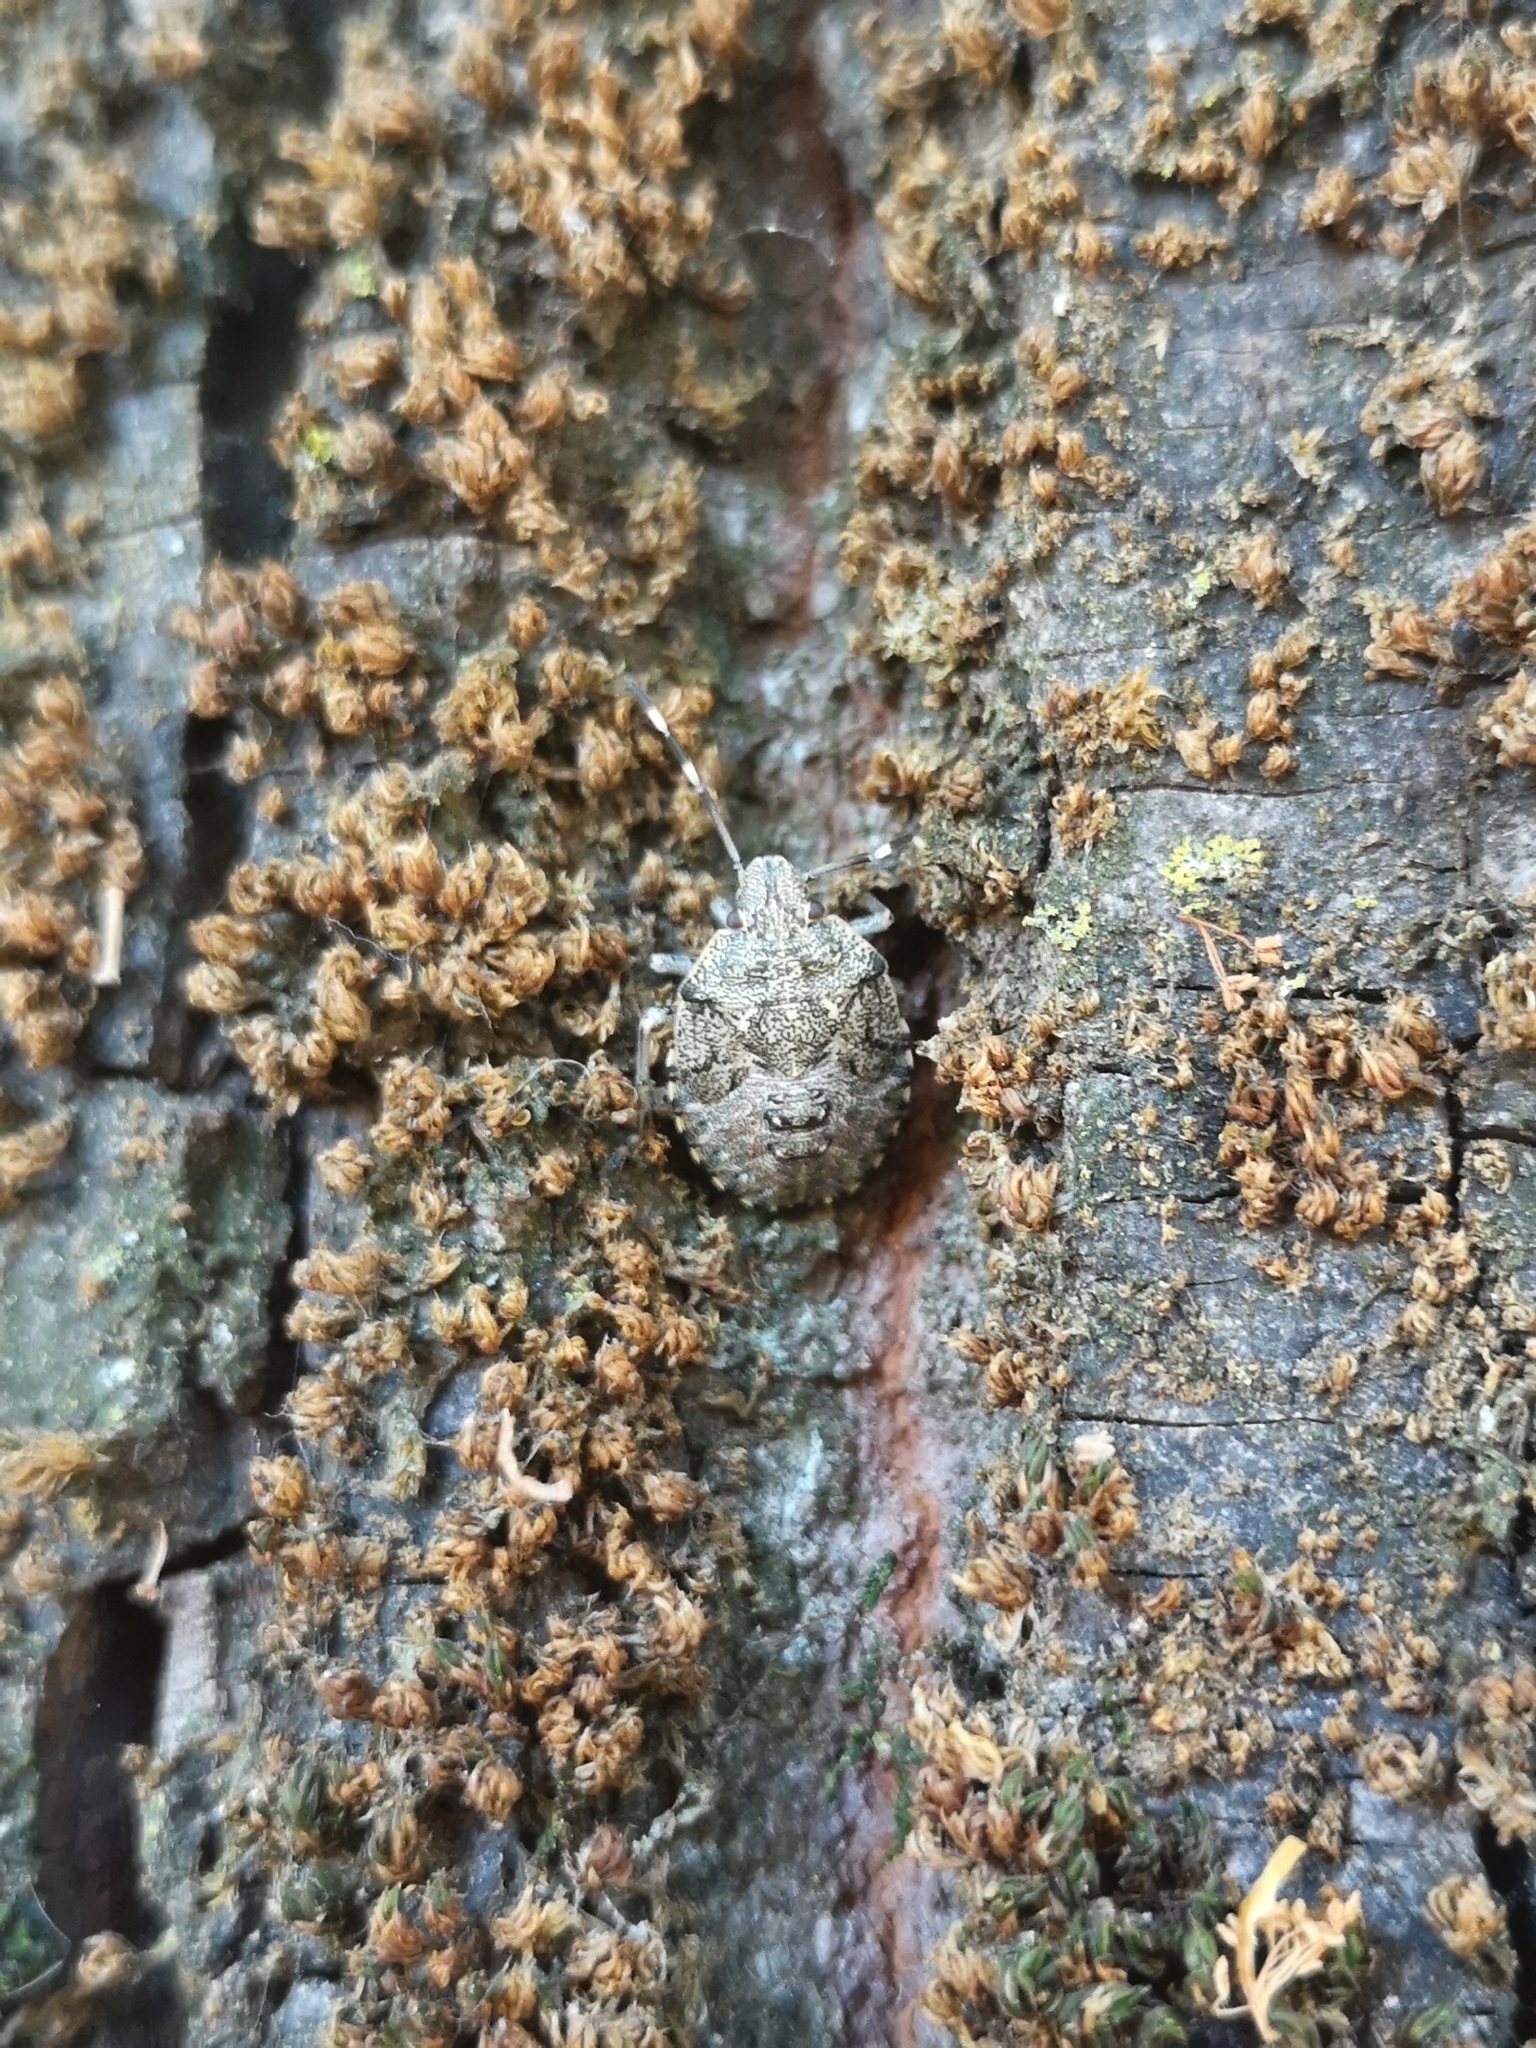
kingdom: Animalia
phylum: Arthropoda
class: Insecta
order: Hemiptera
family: Pentatomidae
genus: Rhaphigaster
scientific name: Rhaphigaster nebulosa
